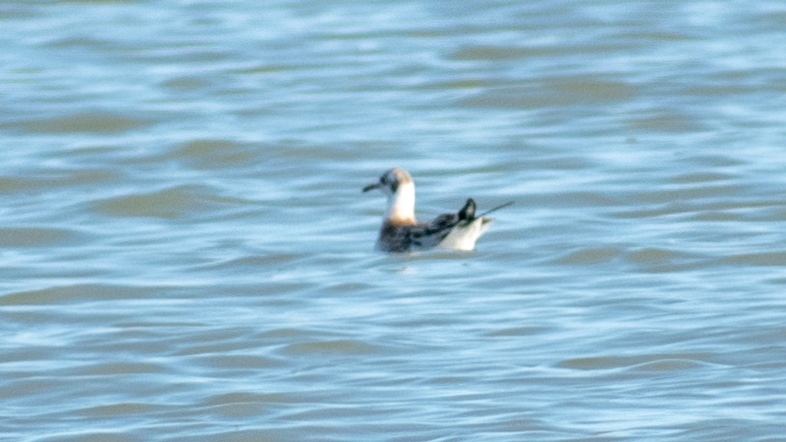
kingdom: Animalia
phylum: Chordata
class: Aves
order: Charadriiformes
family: Laridae
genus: Chroicocephalus
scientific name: Chroicocephalus ridibundus
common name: Black-headed gull
